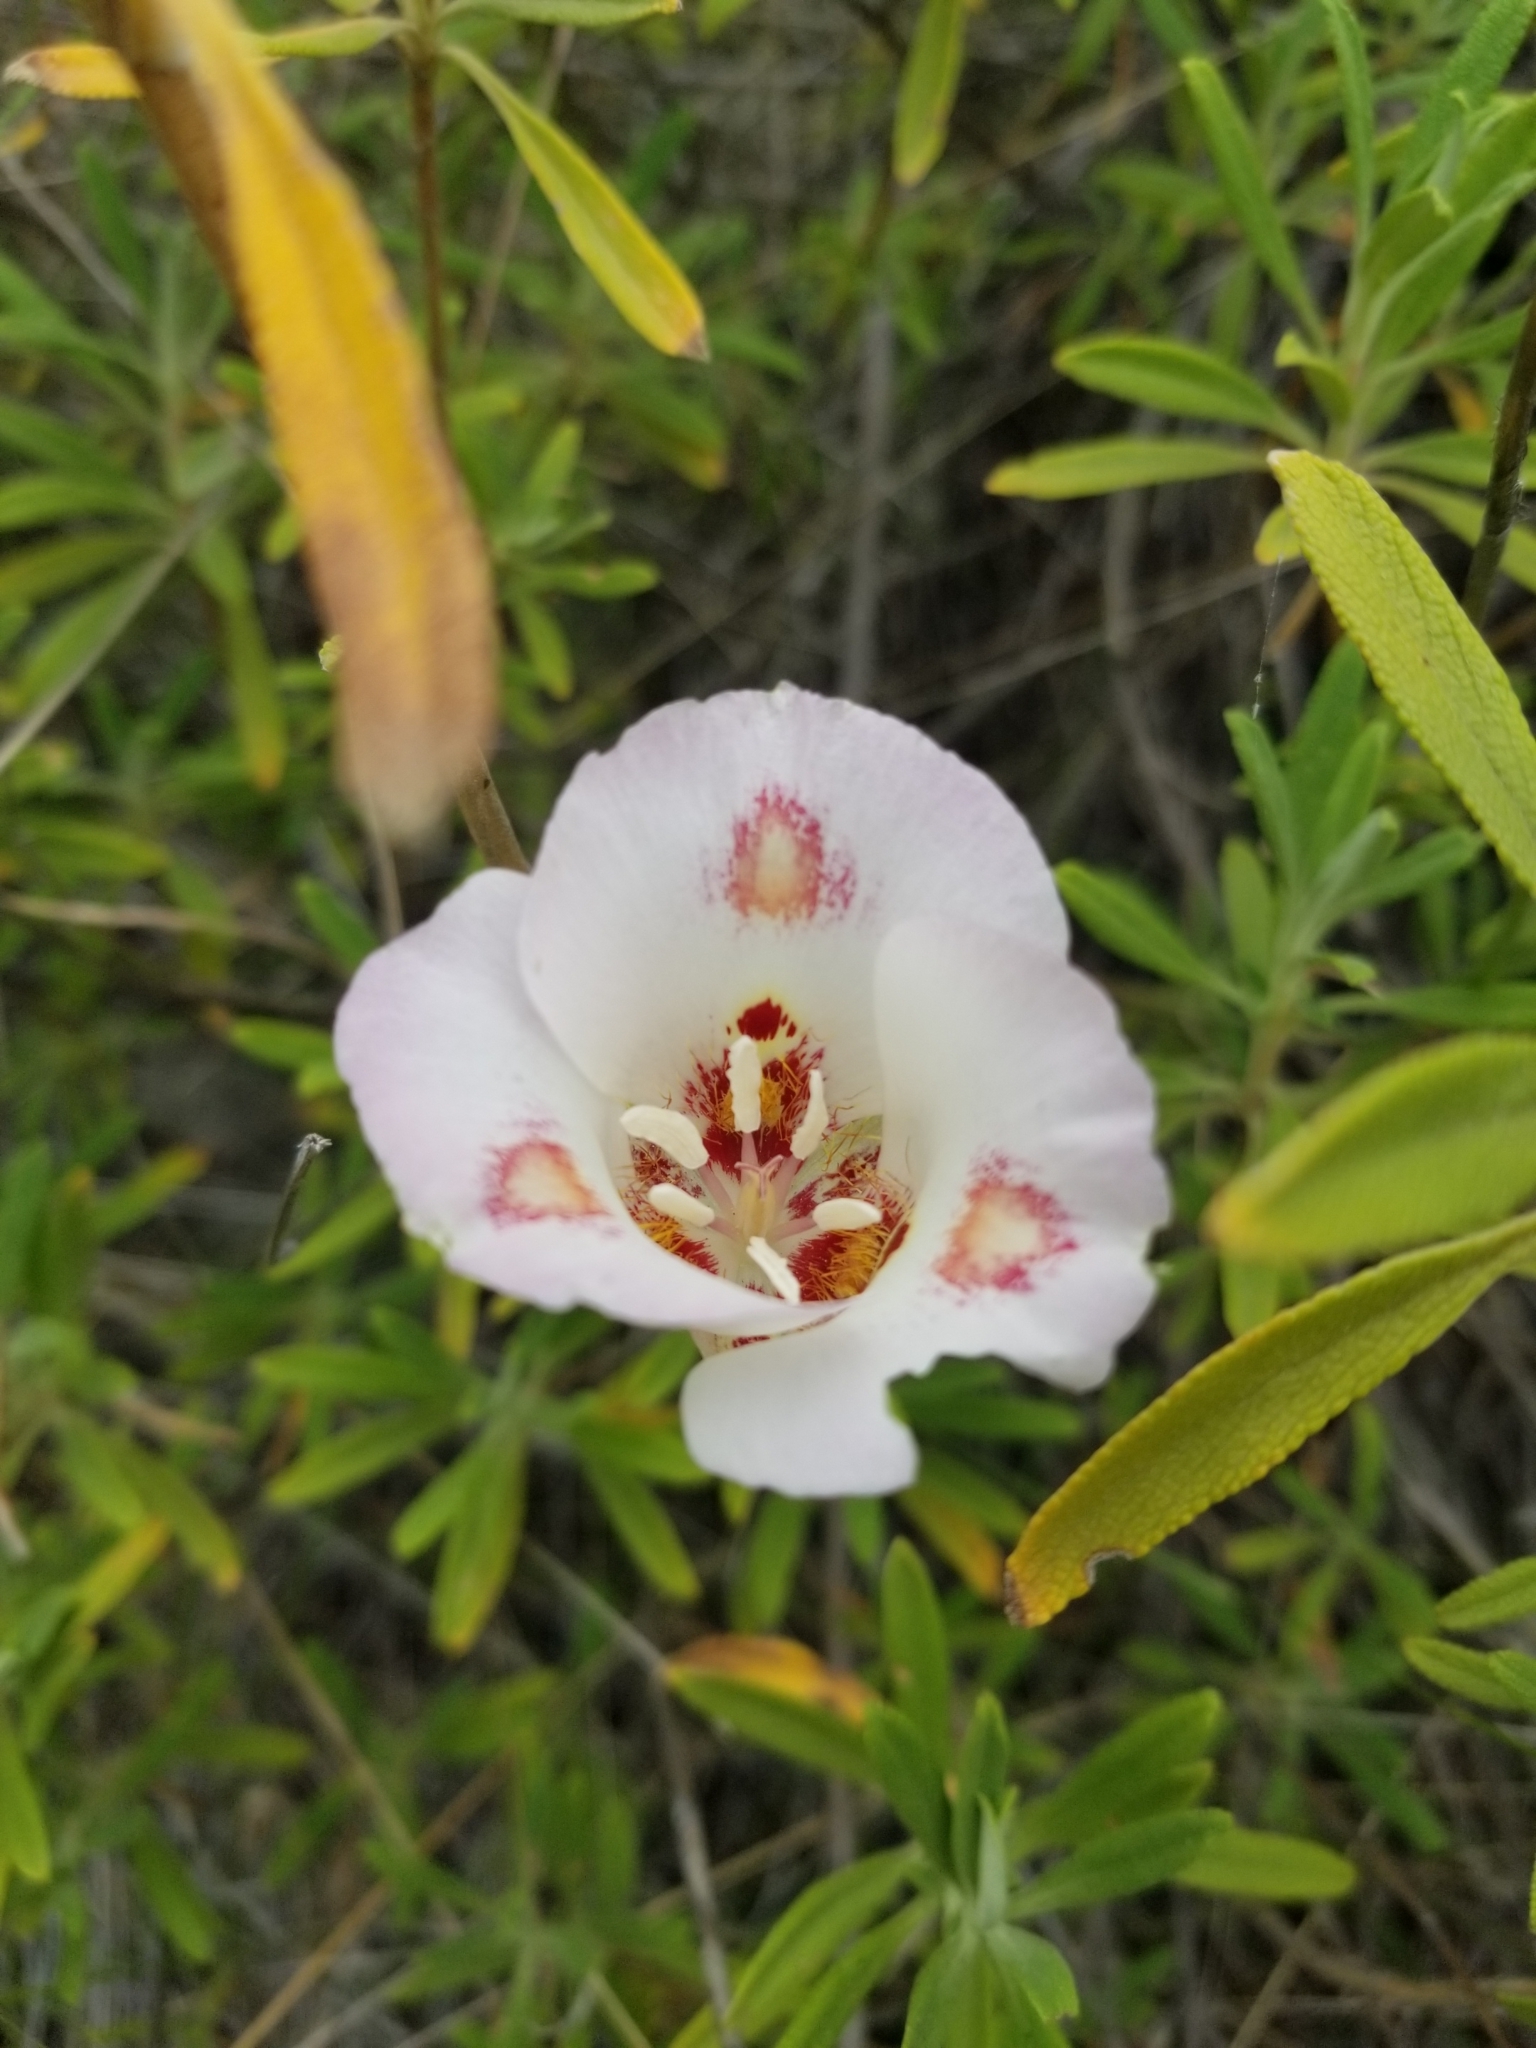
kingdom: Plantae
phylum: Tracheophyta
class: Liliopsida
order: Liliales
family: Liliaceae
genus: Calochortus
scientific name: Calochortus venustus
